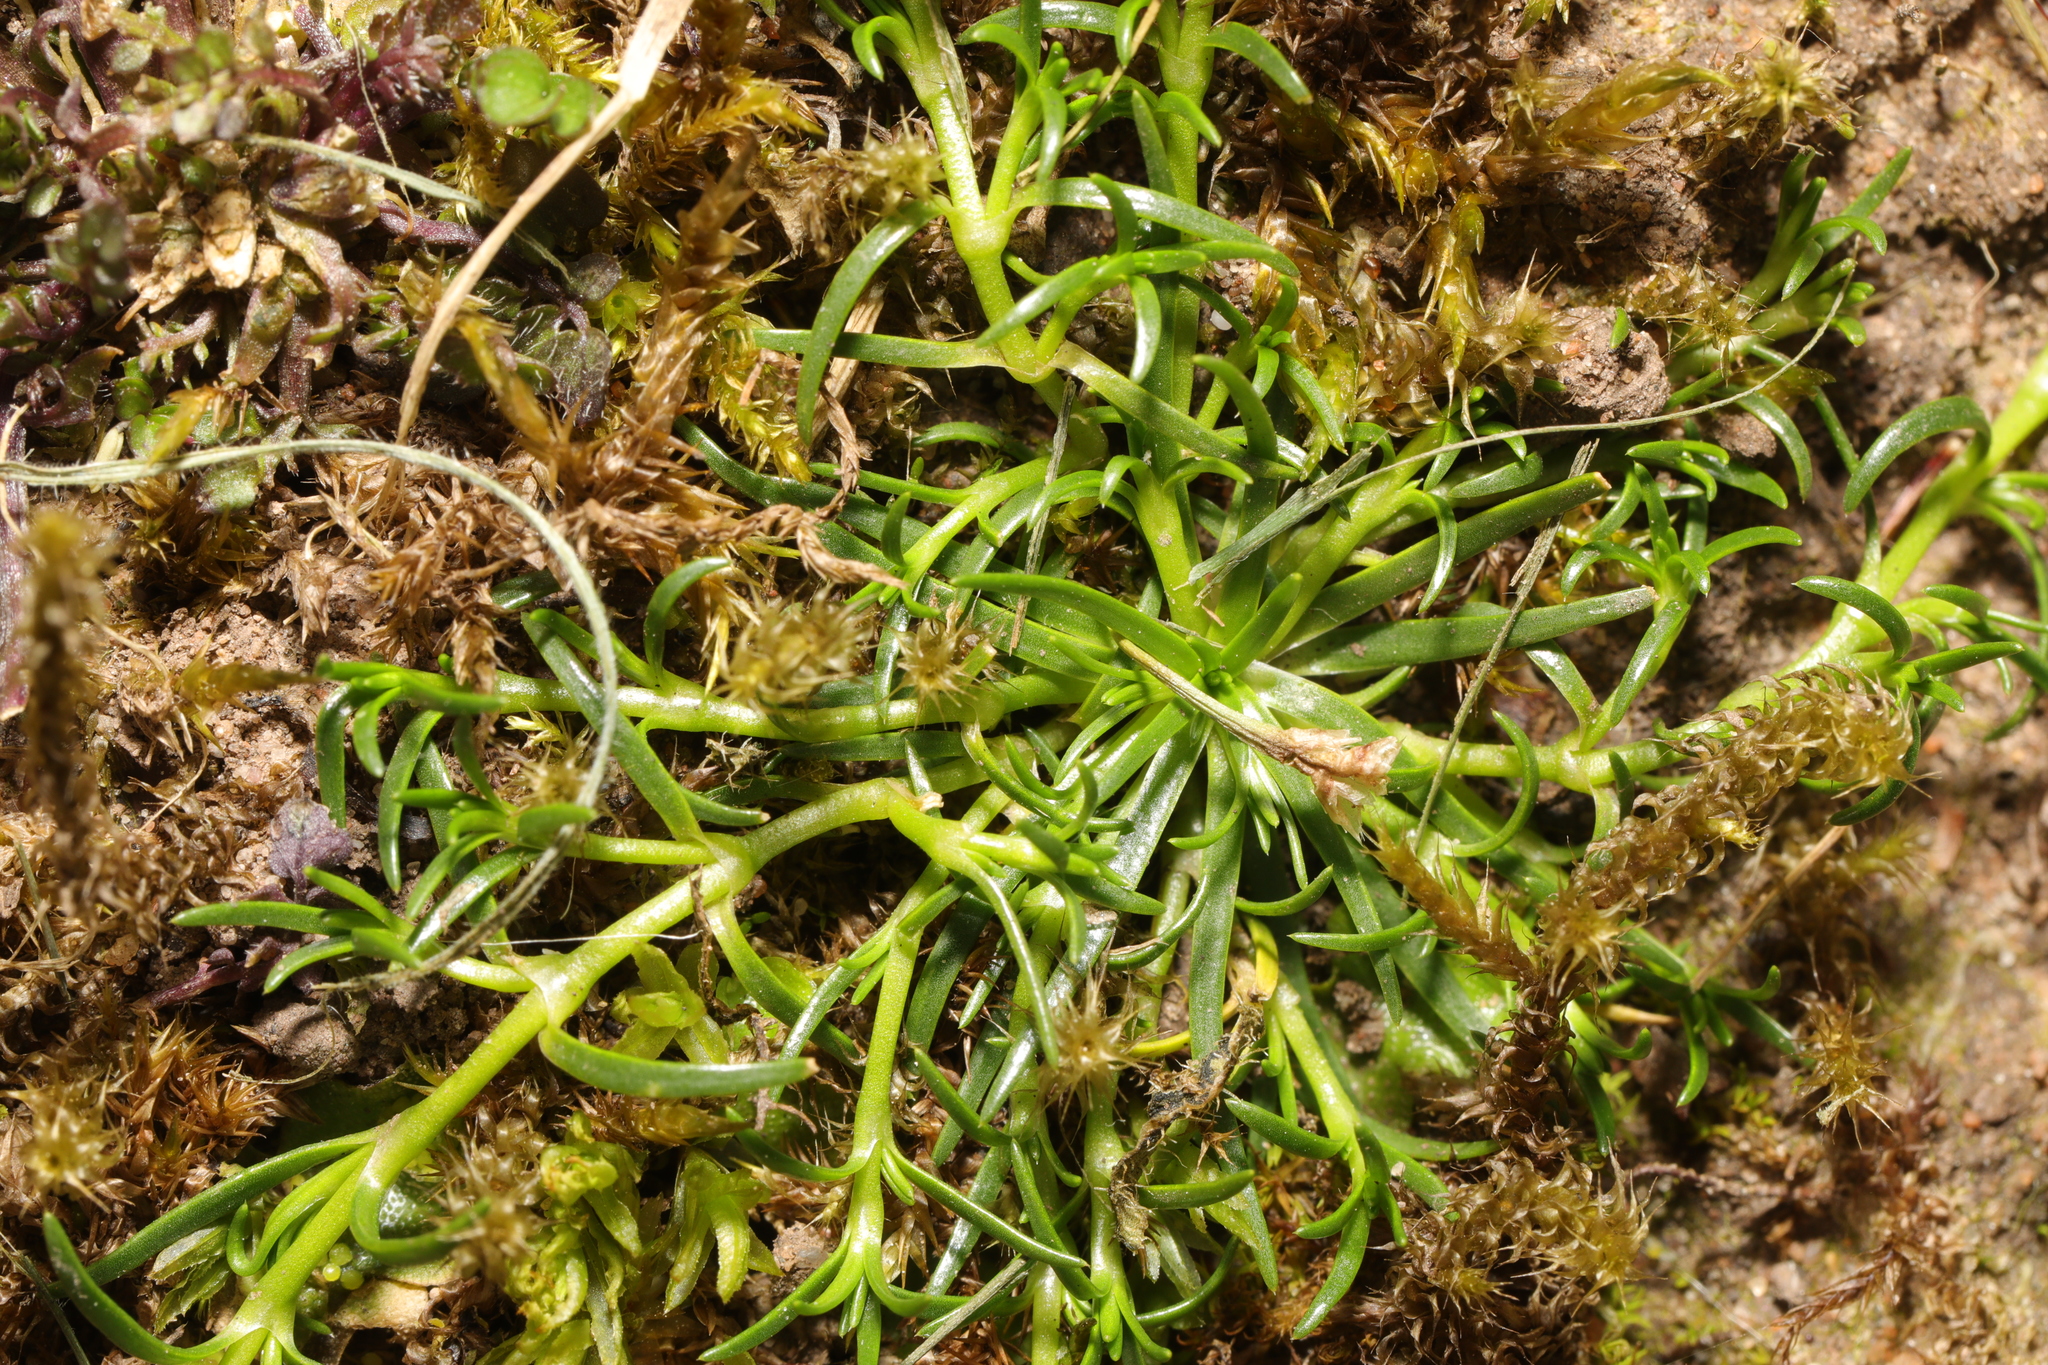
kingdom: Plantae
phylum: Tracheophyta
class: Magnoliopsida
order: Caryophyllales
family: Caryophyllaceae
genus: Sagina
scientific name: Sagina procumbens
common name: Procumbent pearlwort
